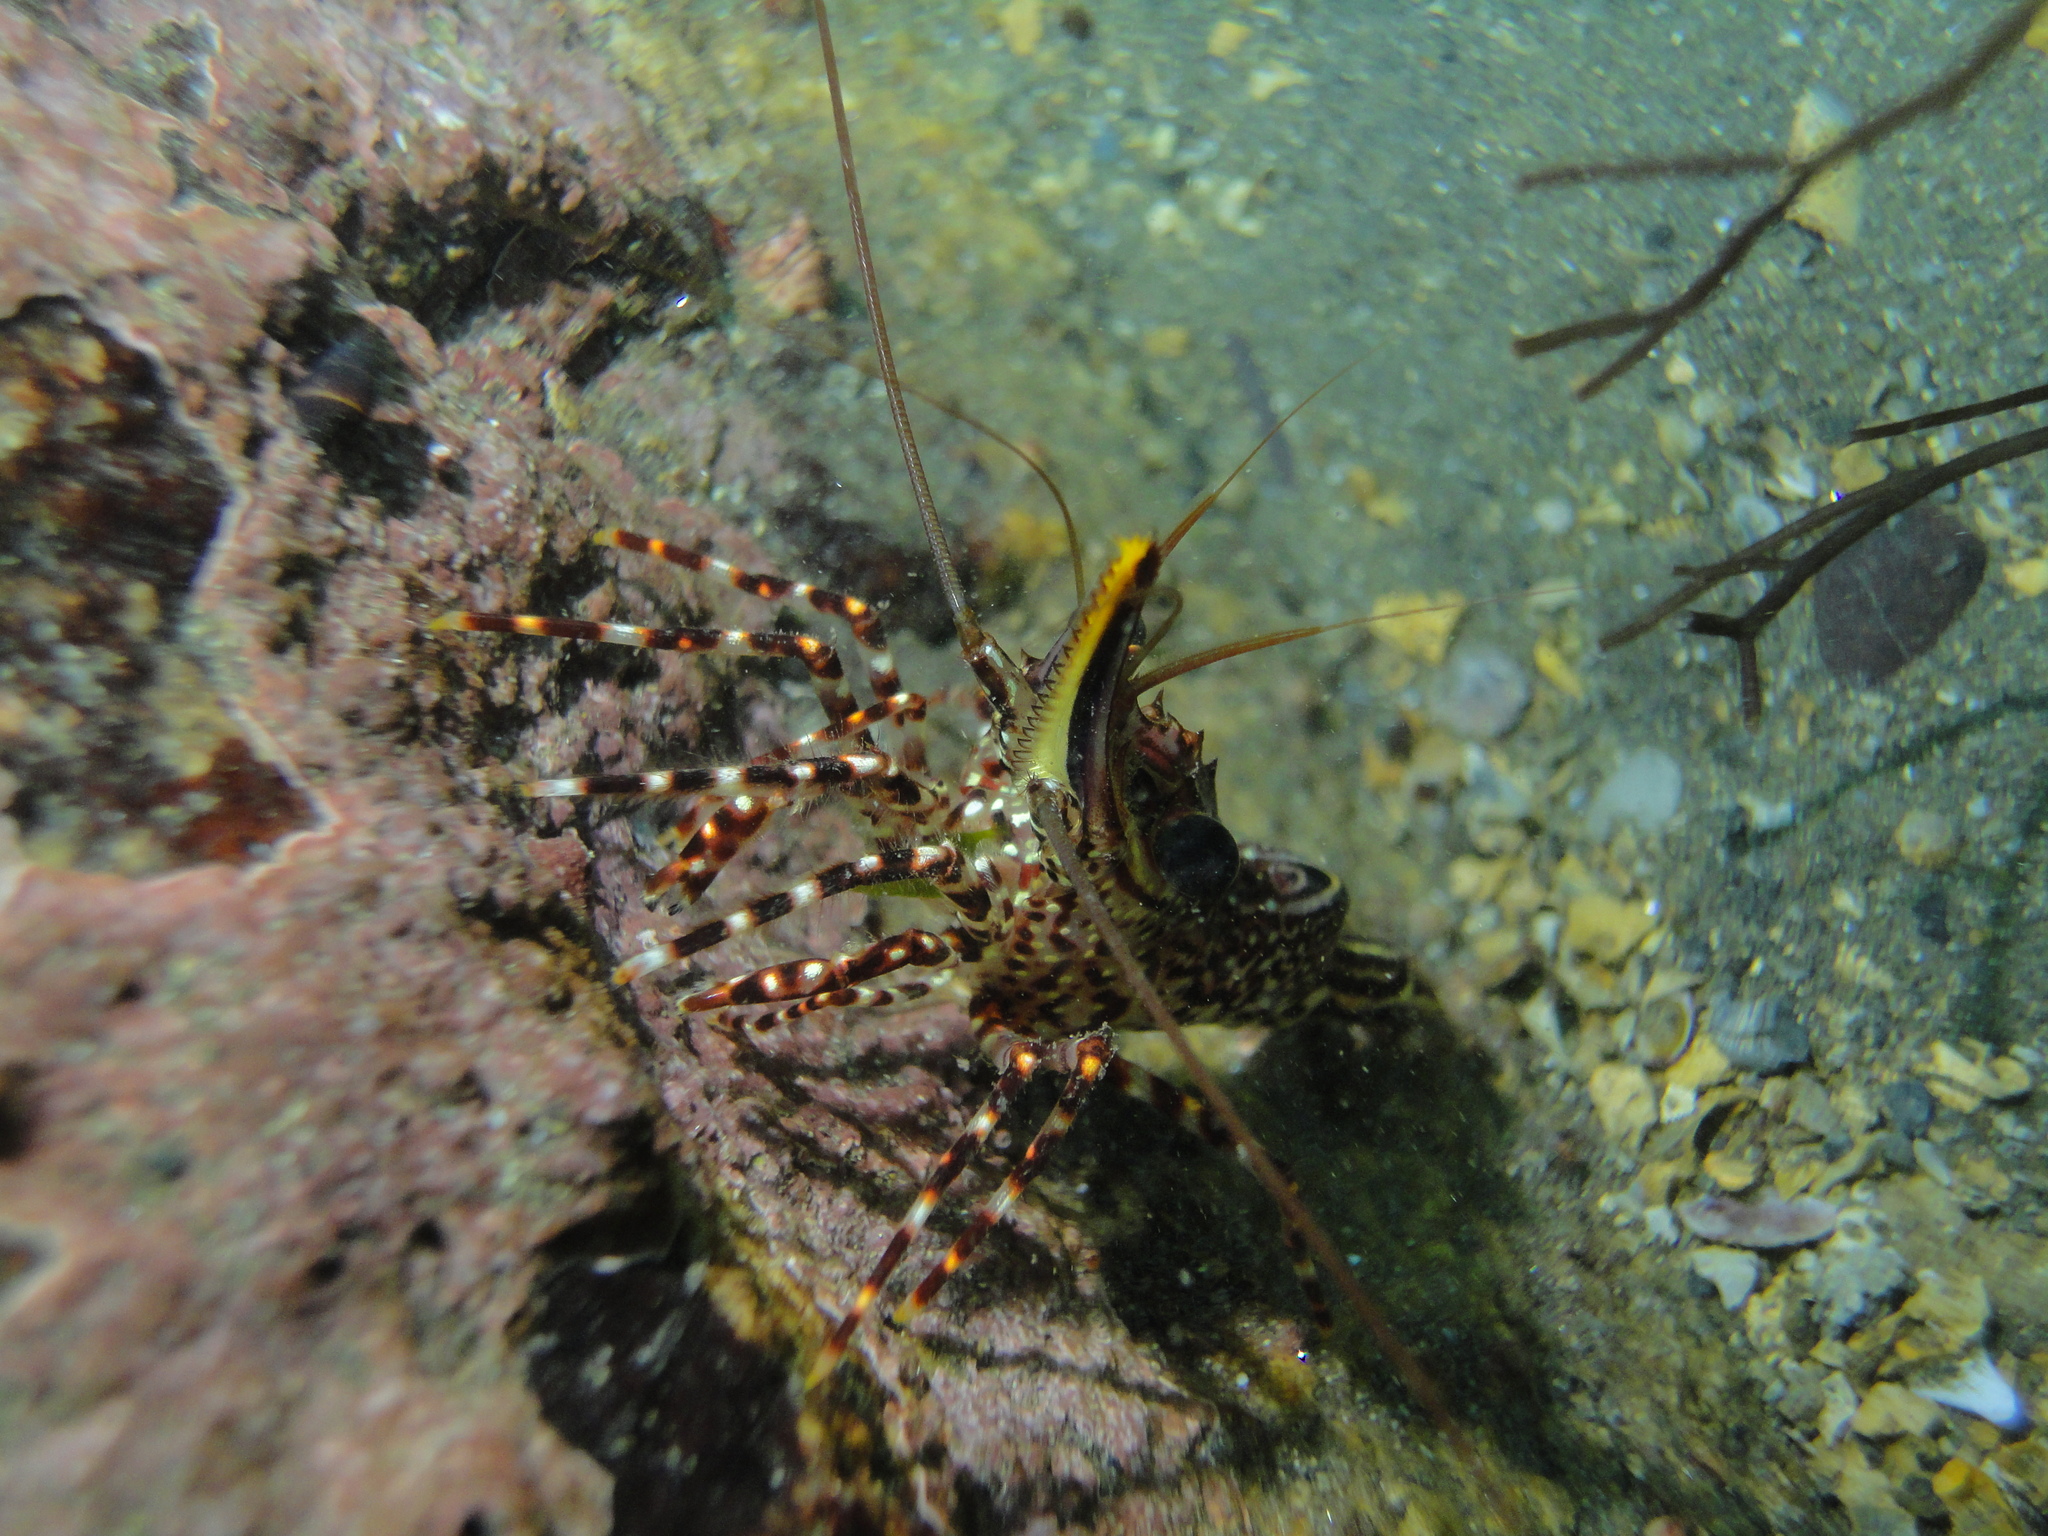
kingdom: Animalia
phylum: Arthropoda
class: Malacostraca
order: Decapoda
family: Rhynchocinetidae
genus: Rhynchocinetes
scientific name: Rhynchocinetes typus
